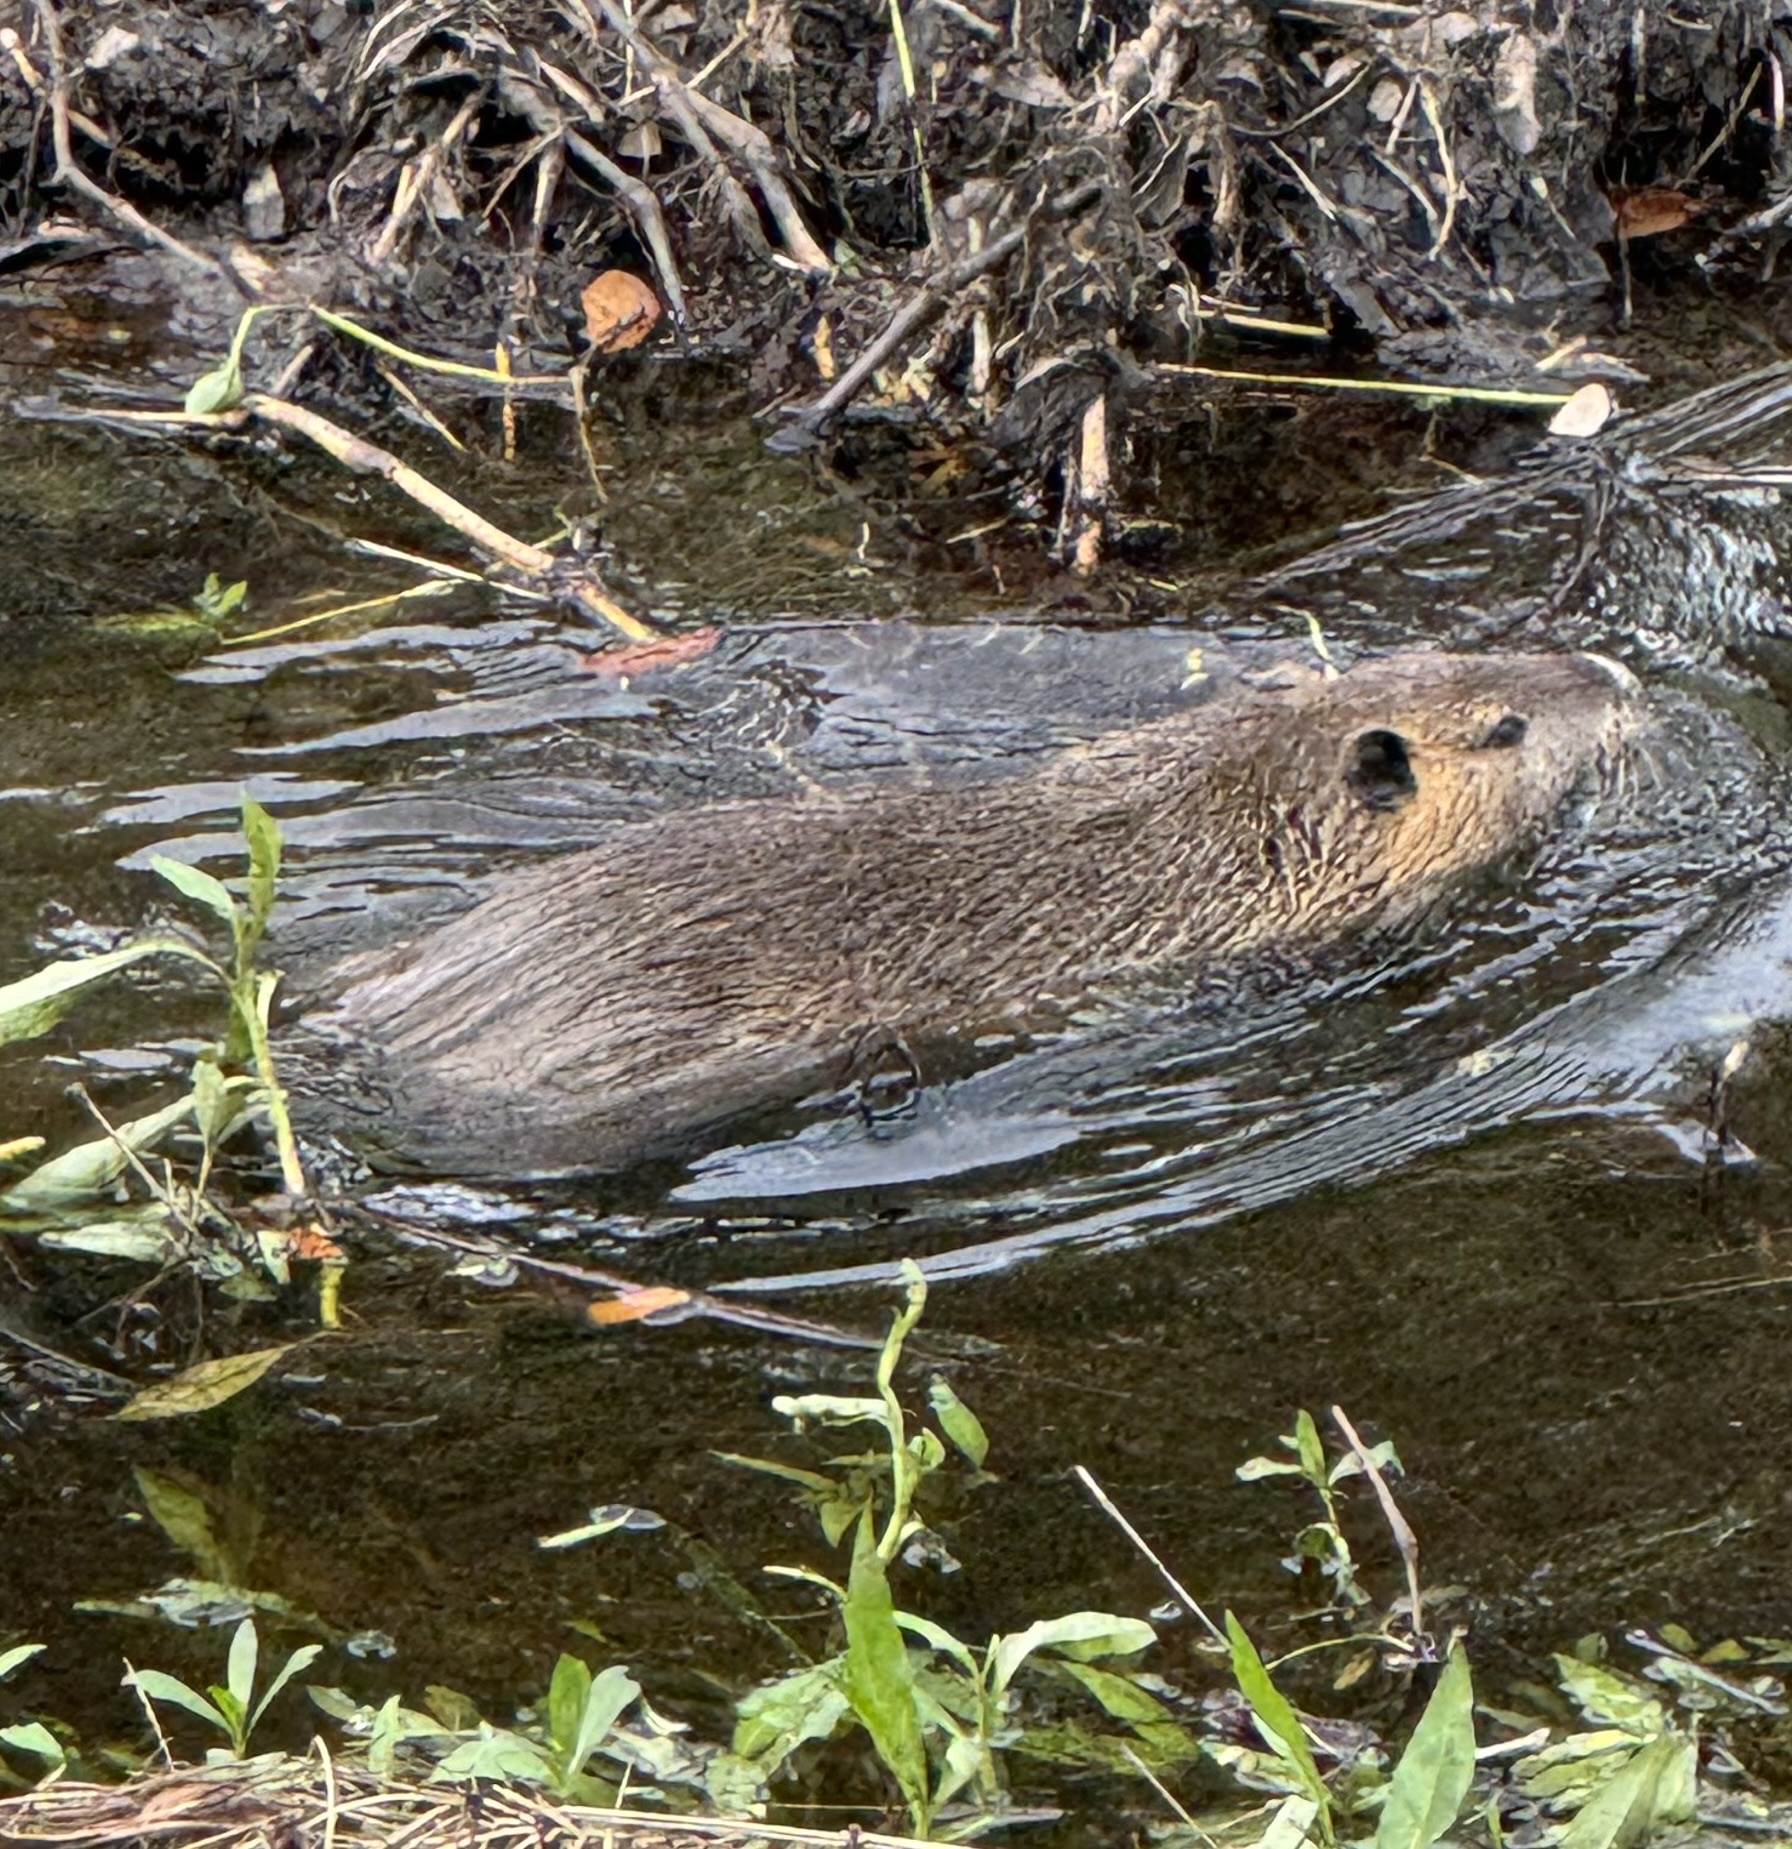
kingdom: Animalia
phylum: Chordata
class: Mammalia
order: Rodentia
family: Myocastoridae
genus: Myocastor
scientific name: Myocastor coypus
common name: Coypu
